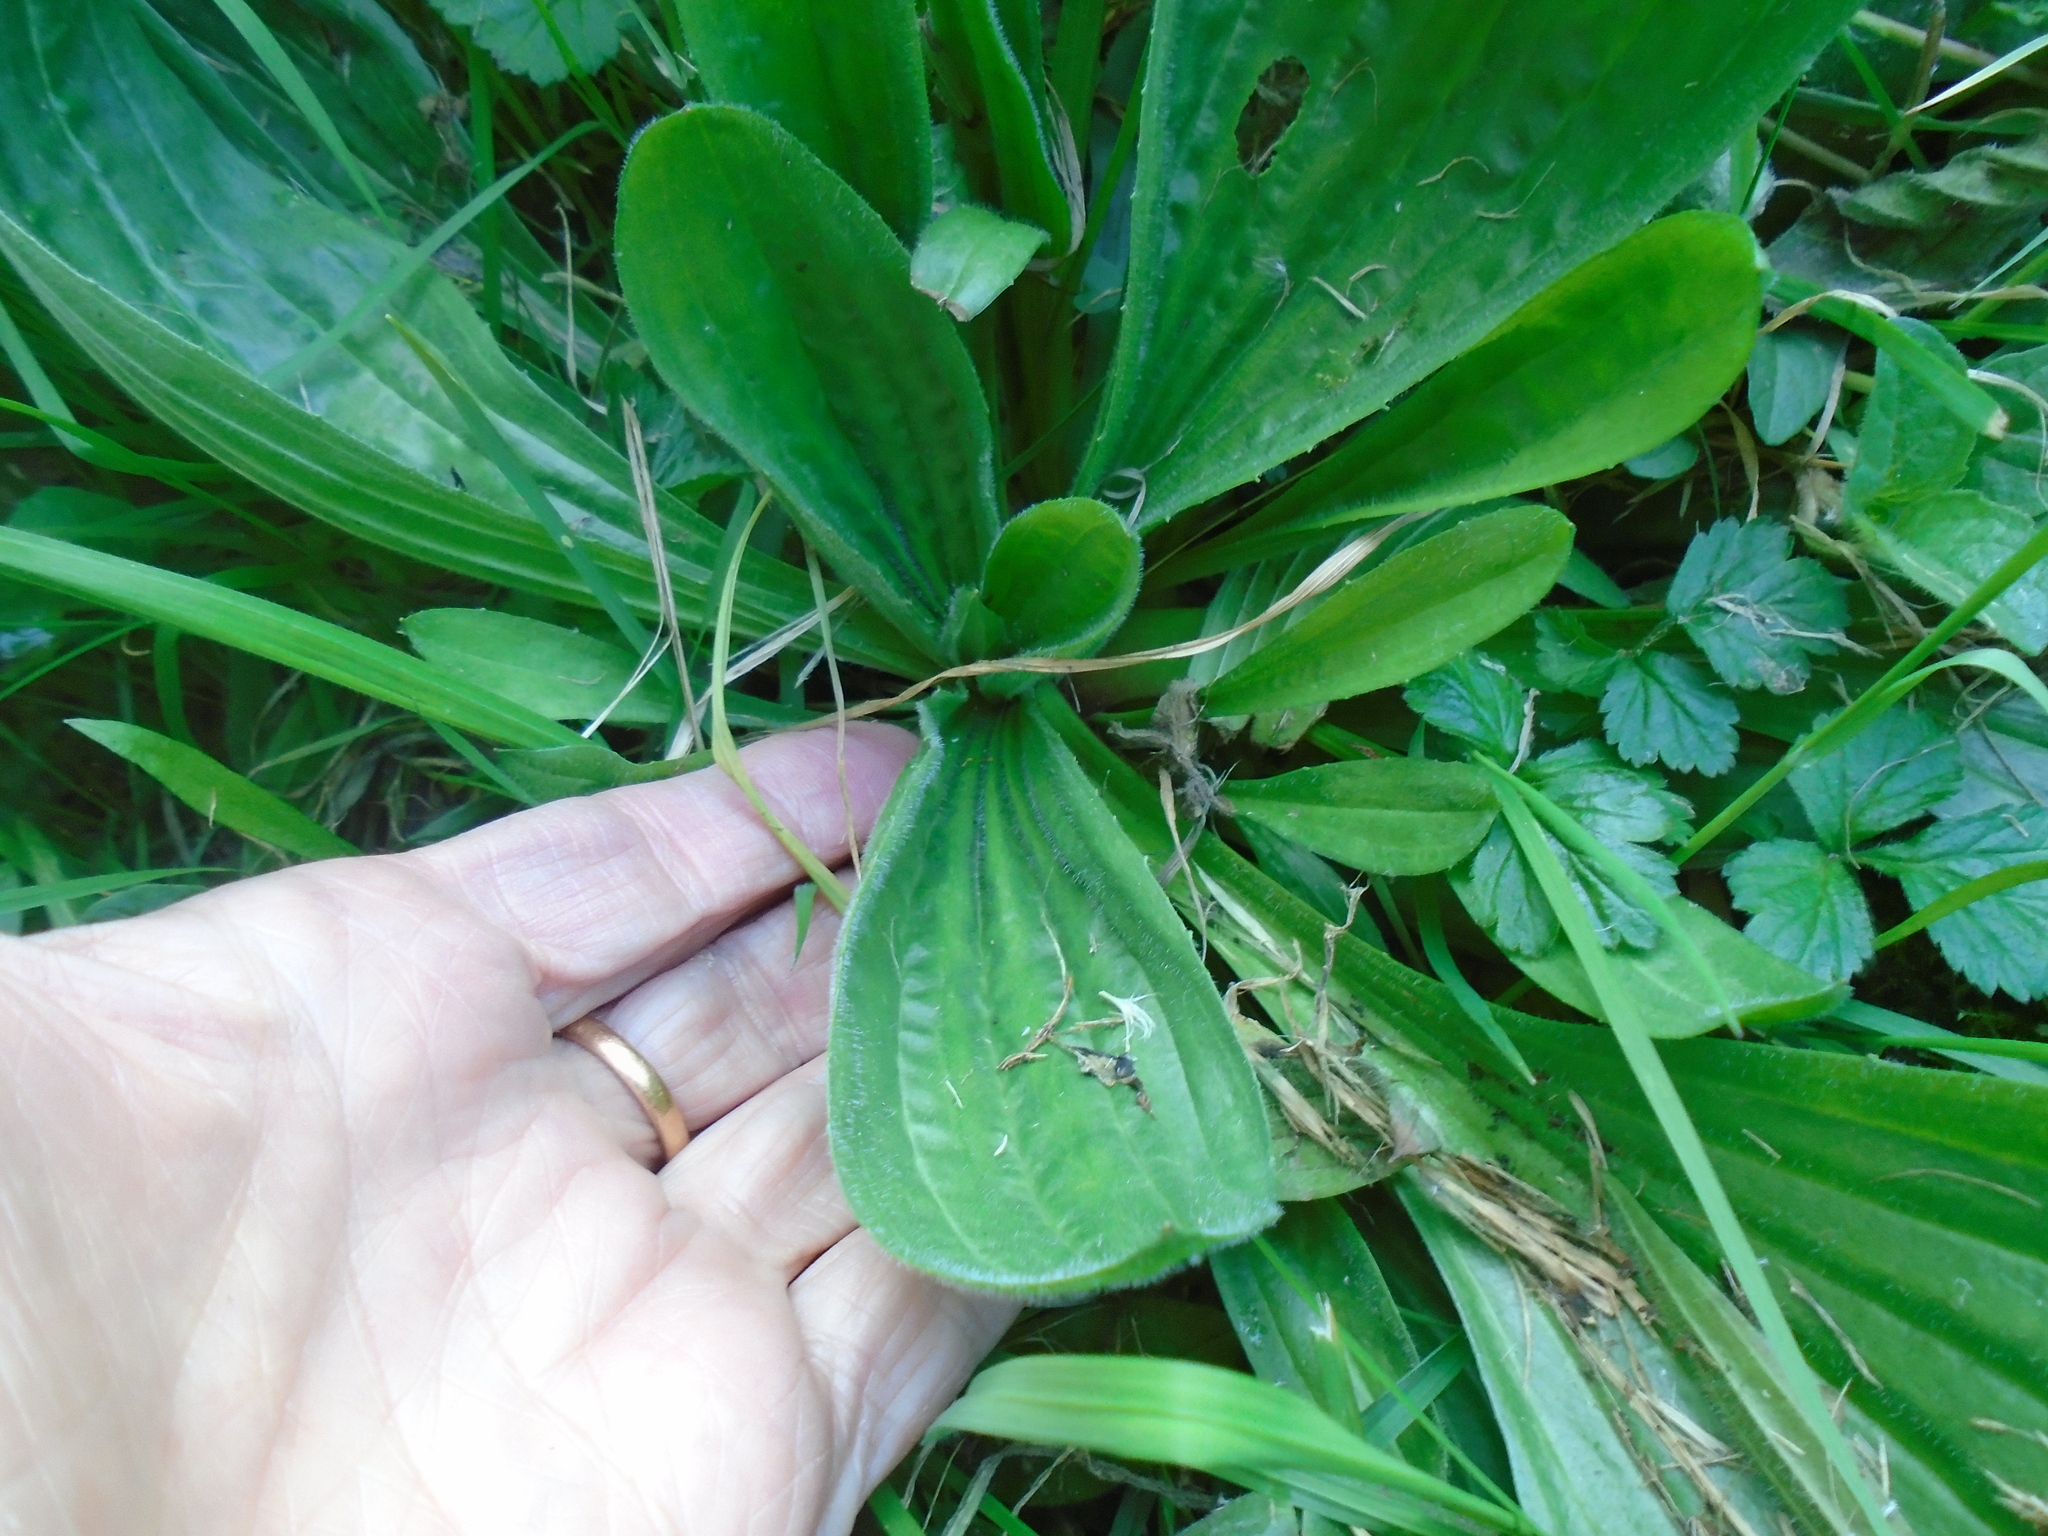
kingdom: Plantae
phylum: Tracheophyta
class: Magnoliopsida
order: Lamiales
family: Plantaginaceae
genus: Plantago
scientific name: Plantago lanceolata
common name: Ribwort plantain
